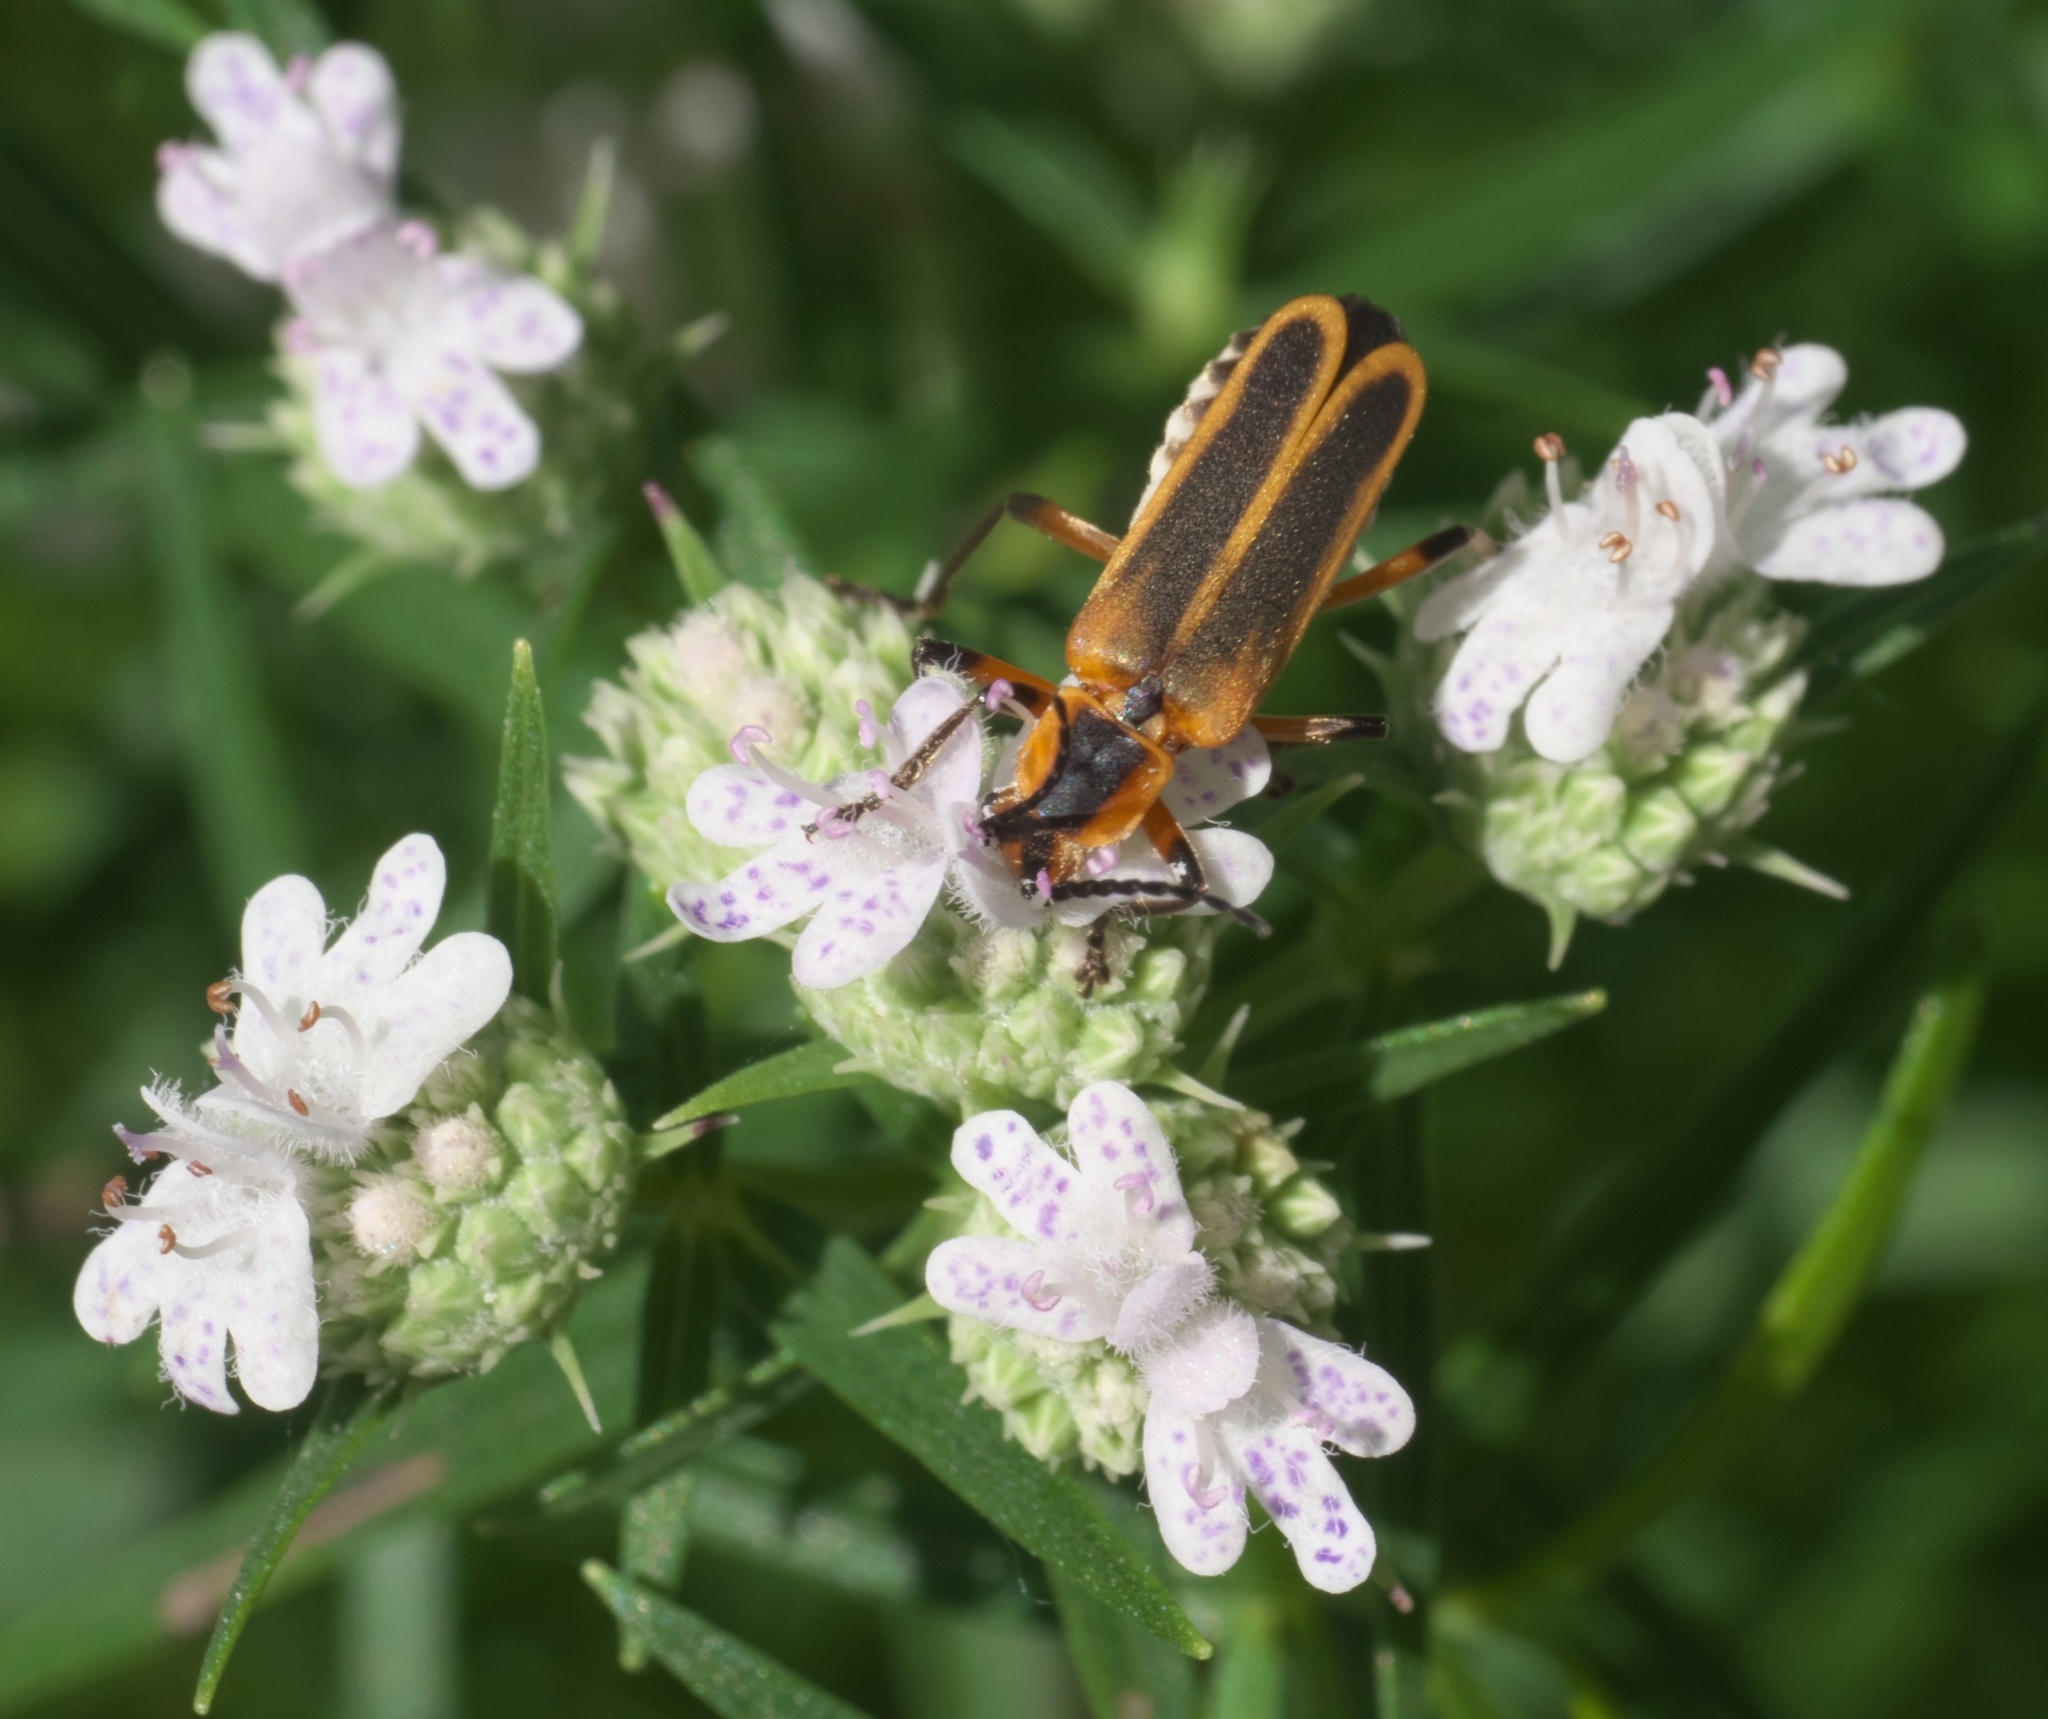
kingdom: Animalia
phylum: Arthropoda
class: Insecta
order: Coleoptera
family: Cantharidae
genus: Chauliognathus
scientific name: Chauliognathus marginatus
